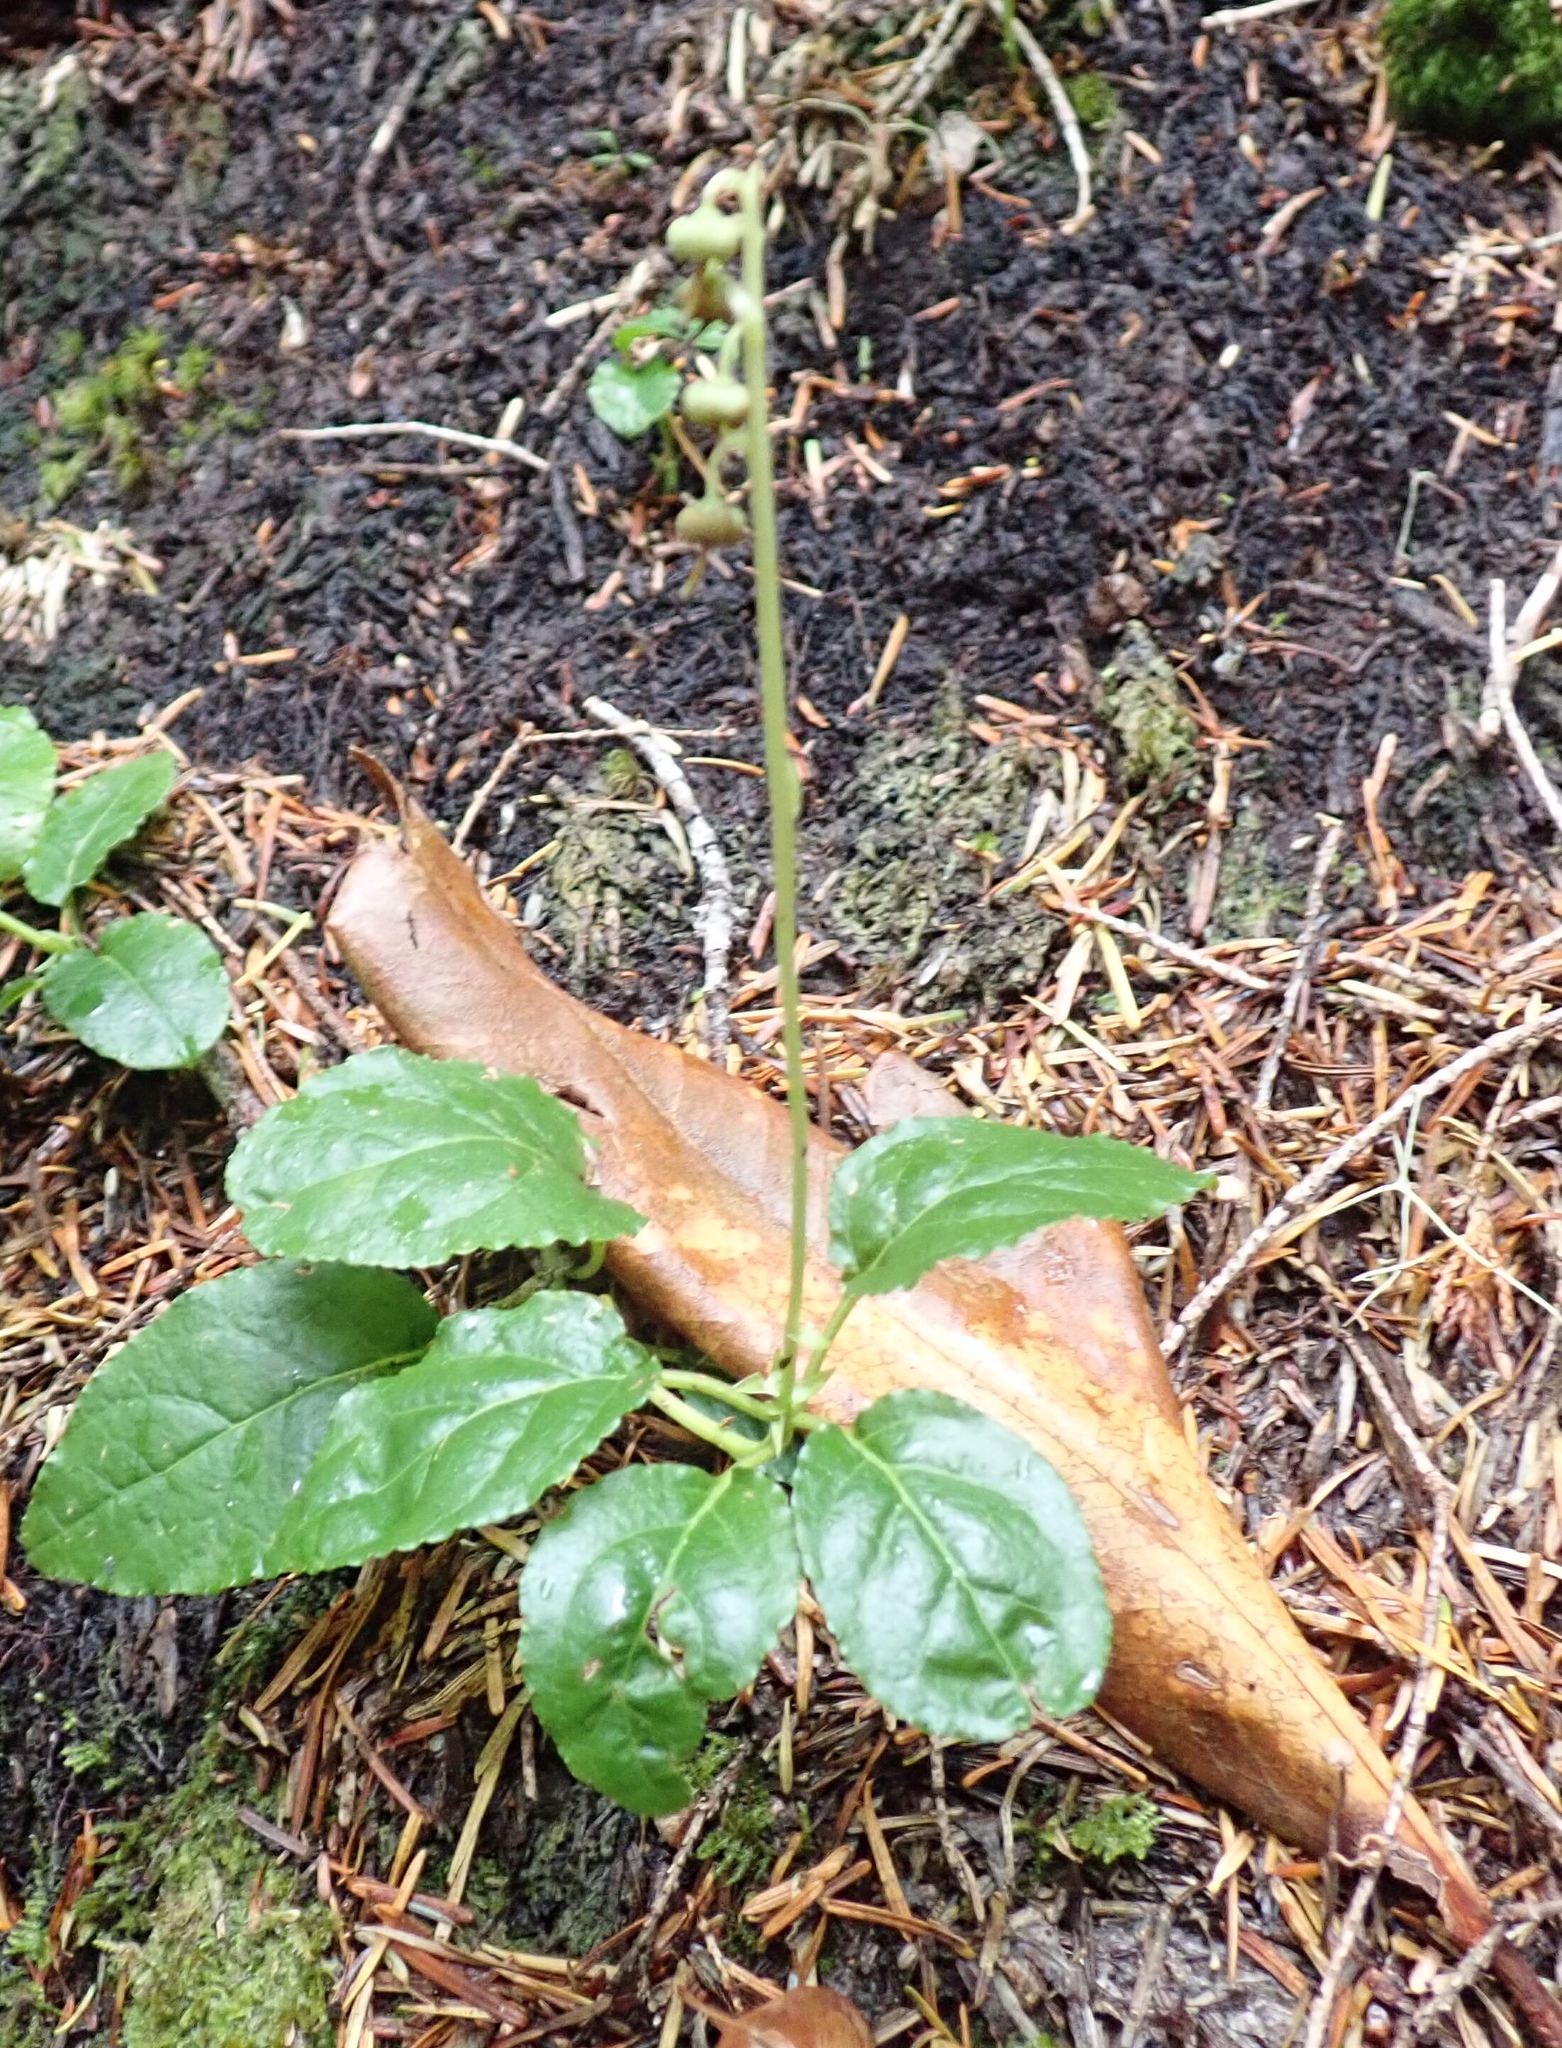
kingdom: Plantae
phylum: Tracheophyta
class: Magnoliopsida
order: Ericales
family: Ericaceae
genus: Orthilia
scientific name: Orthilia secunda
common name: One-sided orthilia
